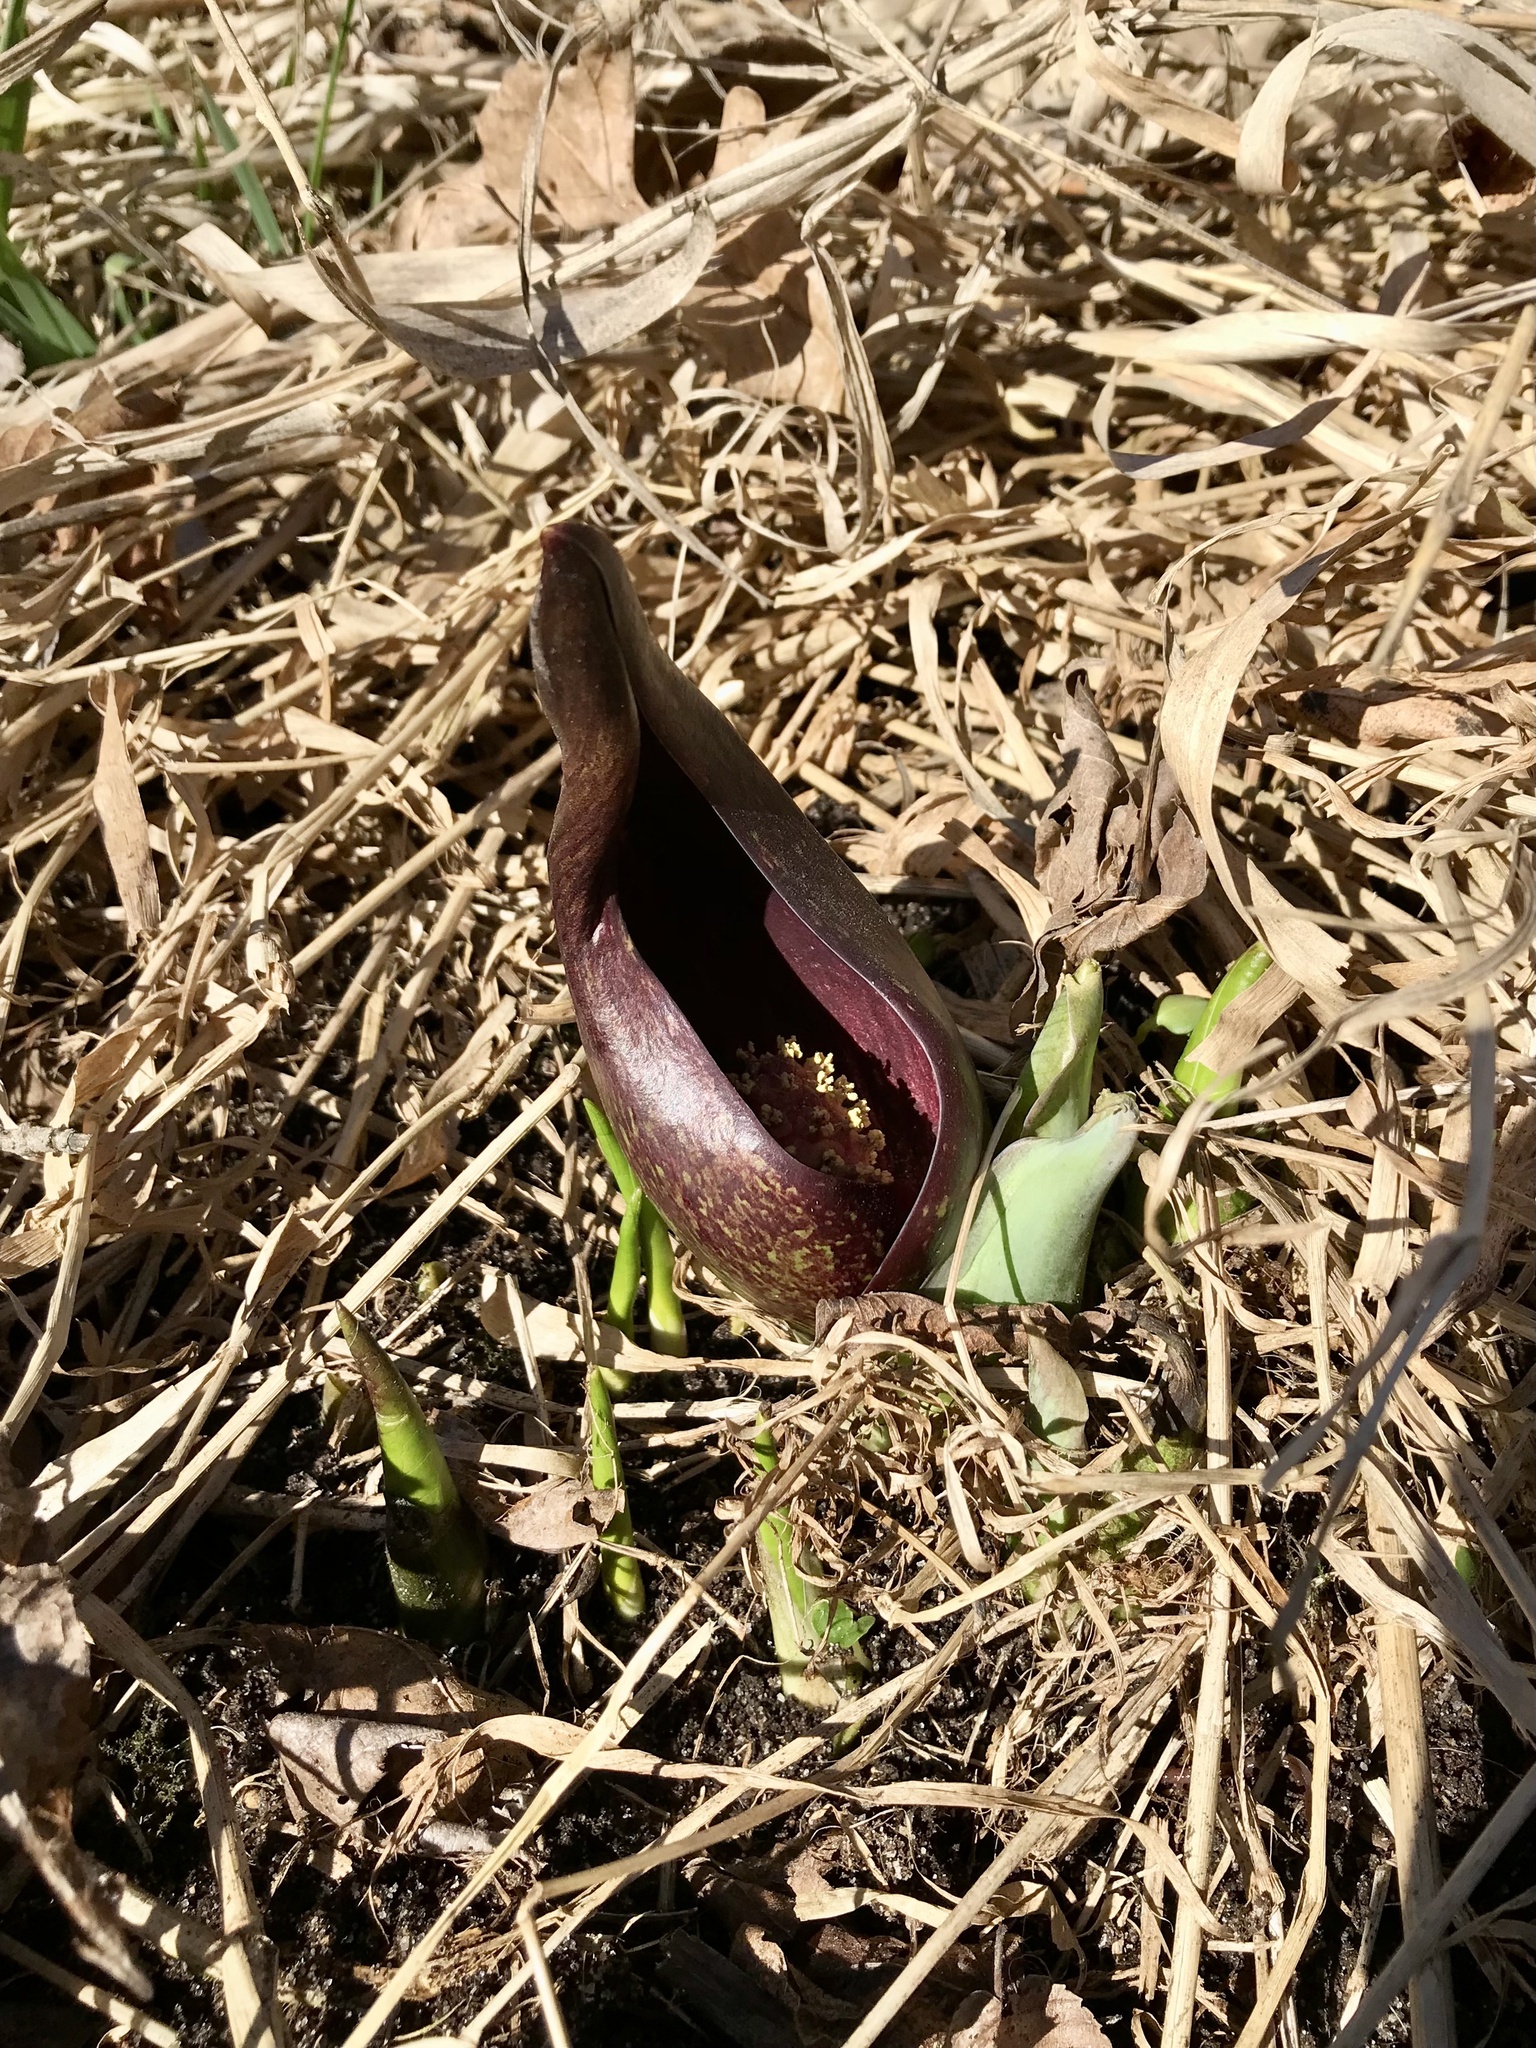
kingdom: Plantae
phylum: Tracheophyta
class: Liliopsida
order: Alismatales
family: Araceae
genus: Symplocarpus
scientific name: Symplocarpus foetidus
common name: Eastern skunk cabbage
